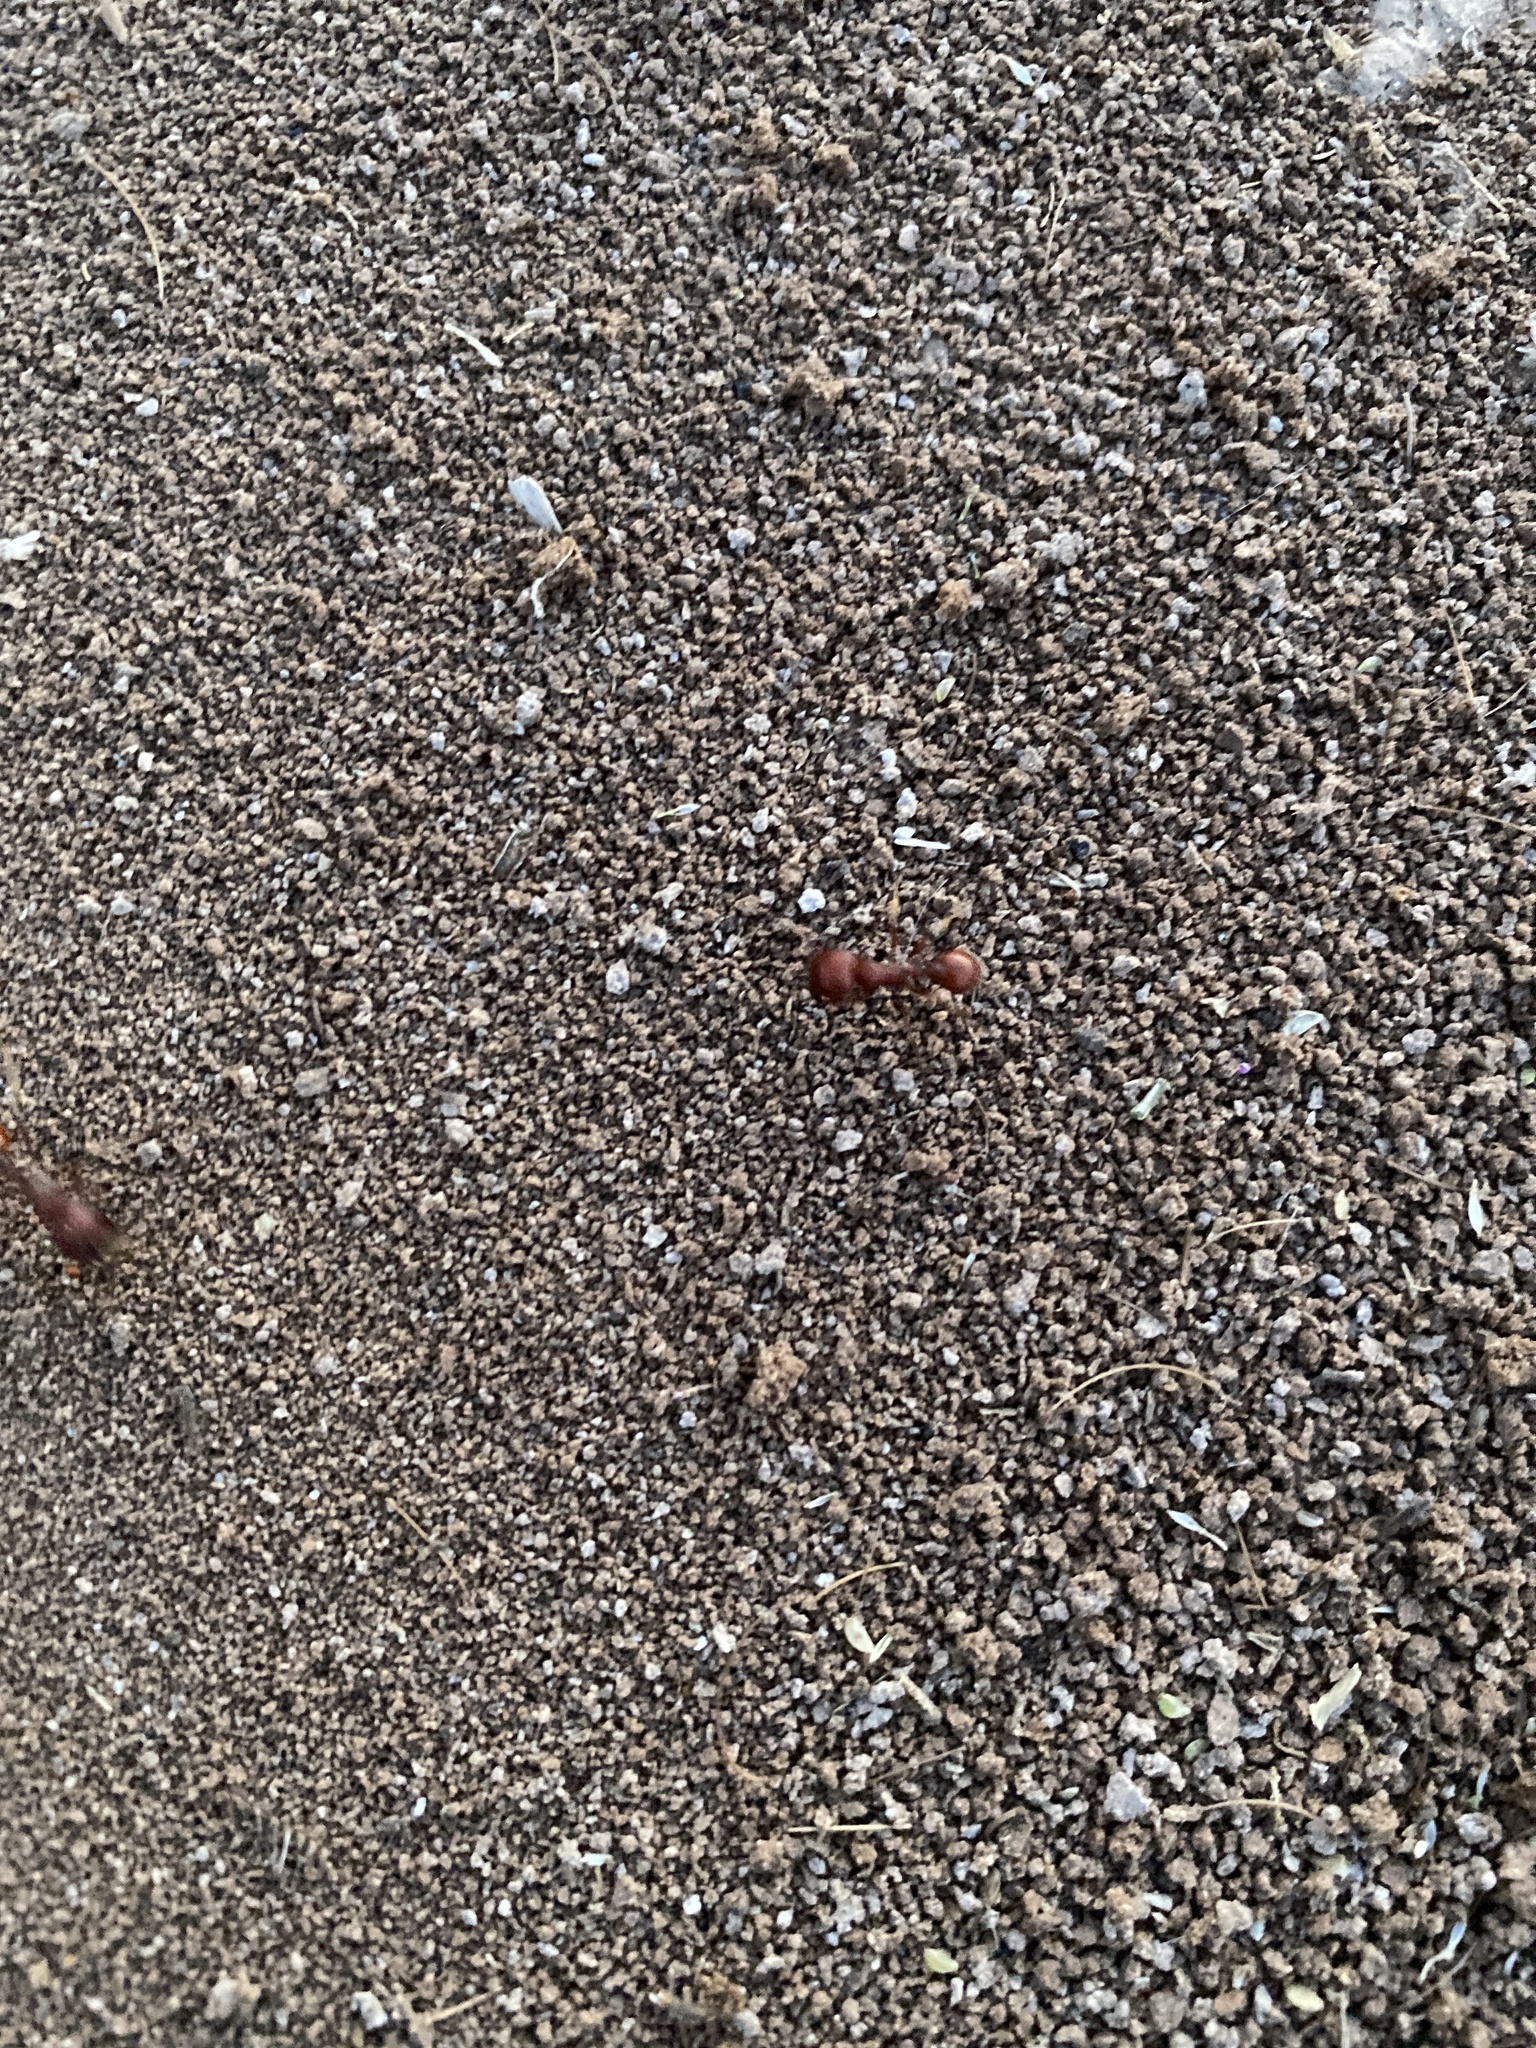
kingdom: Animalia
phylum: Arthropoda
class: Insecta
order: Hymenoptera
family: Formicidae
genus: Pogonomyrmex
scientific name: Pogonomyrmex barbatus
